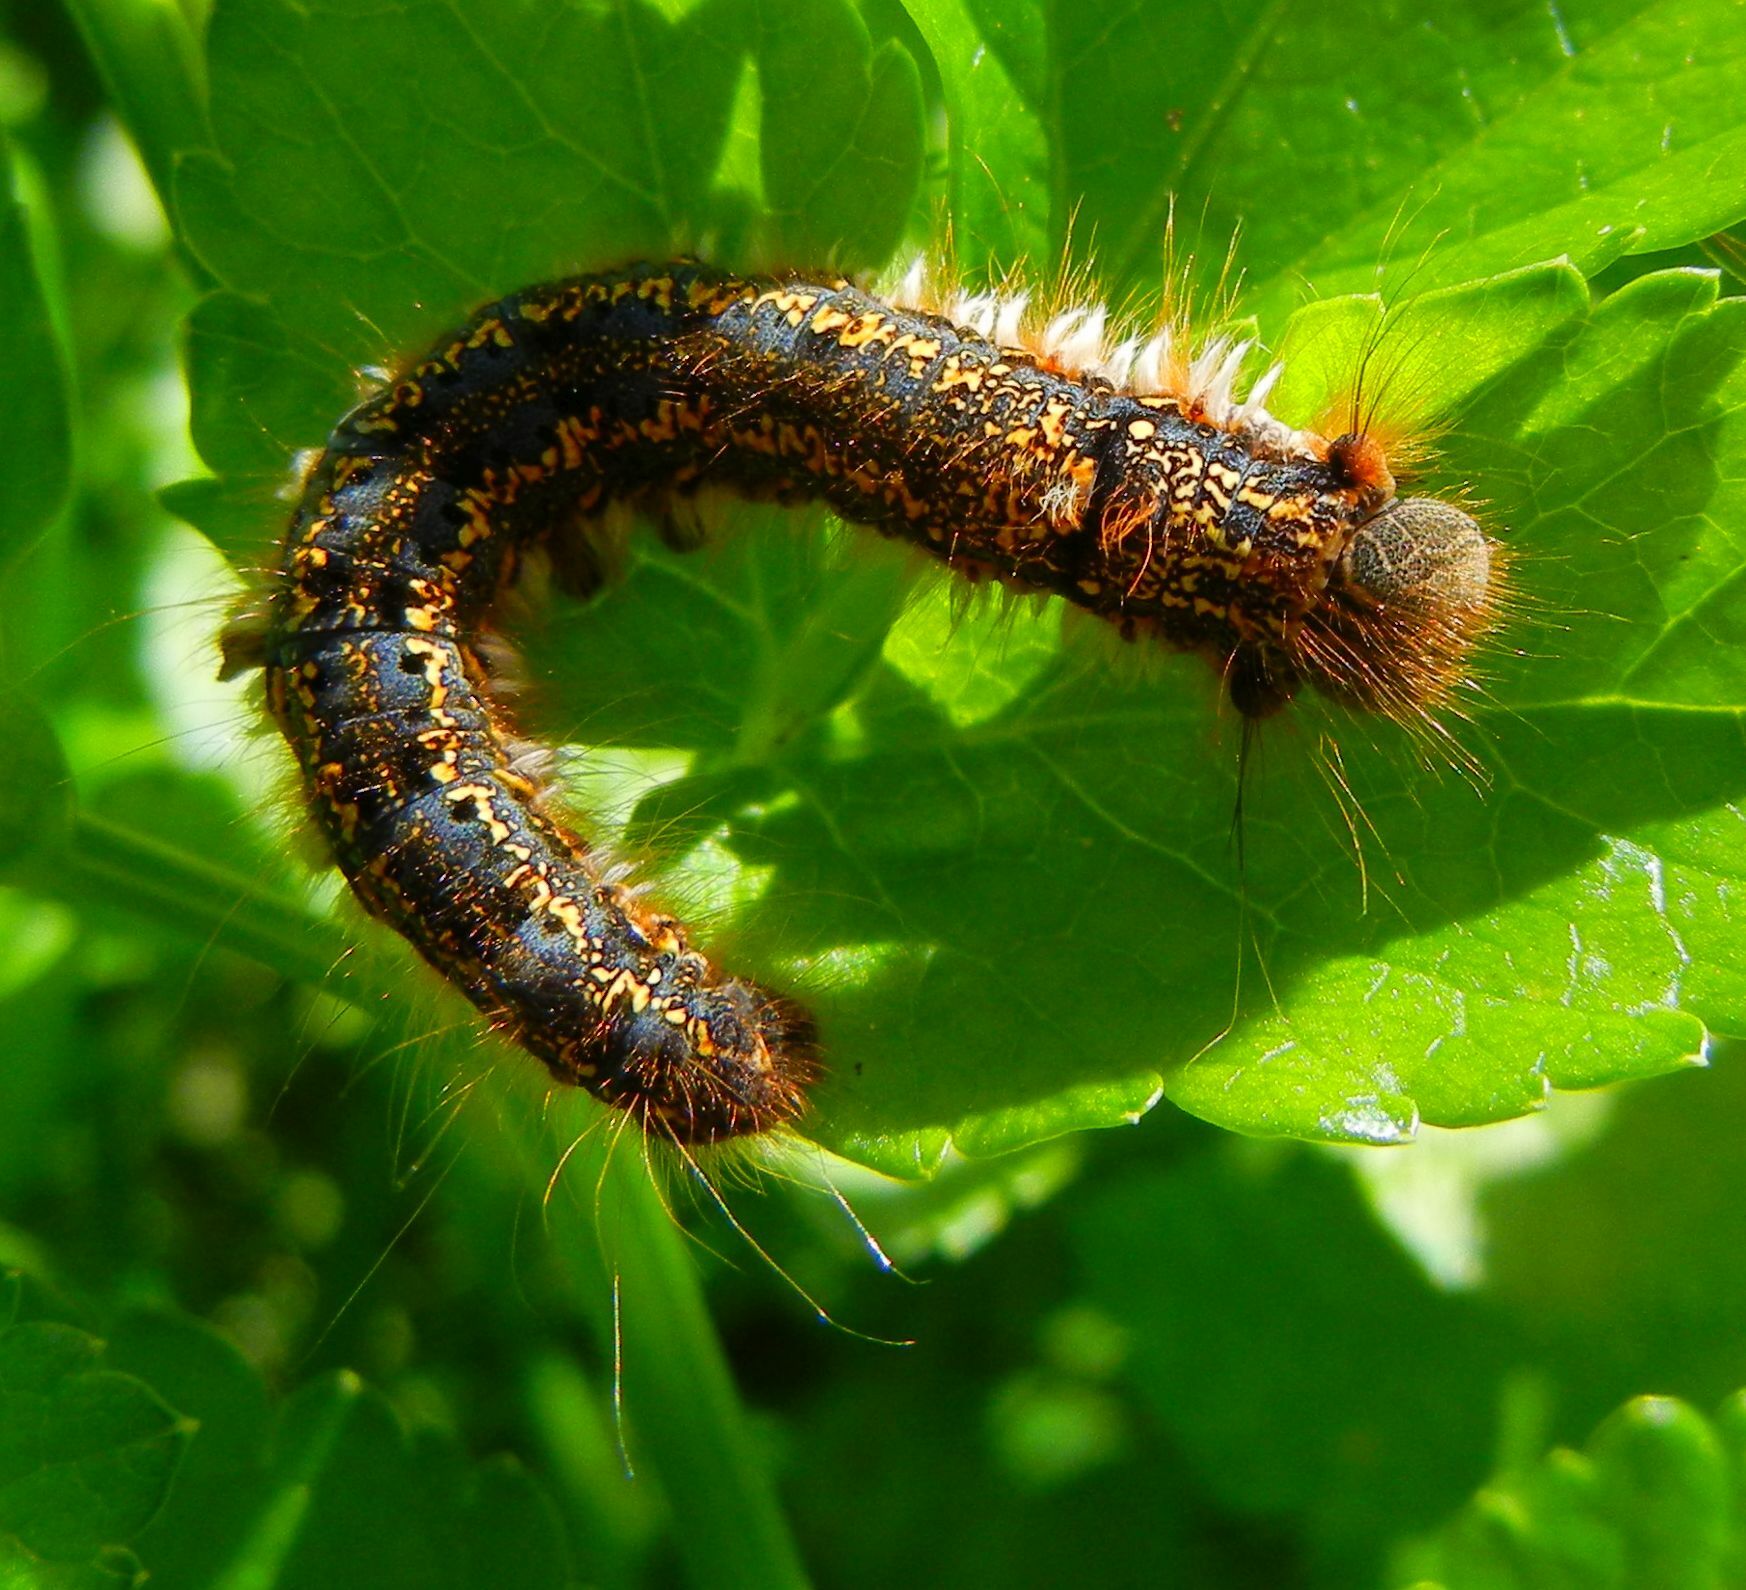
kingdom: Animalia
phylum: Arthropoda
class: Insecta
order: Lepidoptera
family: Lasiocampidae
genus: Euthrix
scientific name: Euthrix potatoria
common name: Drinker
